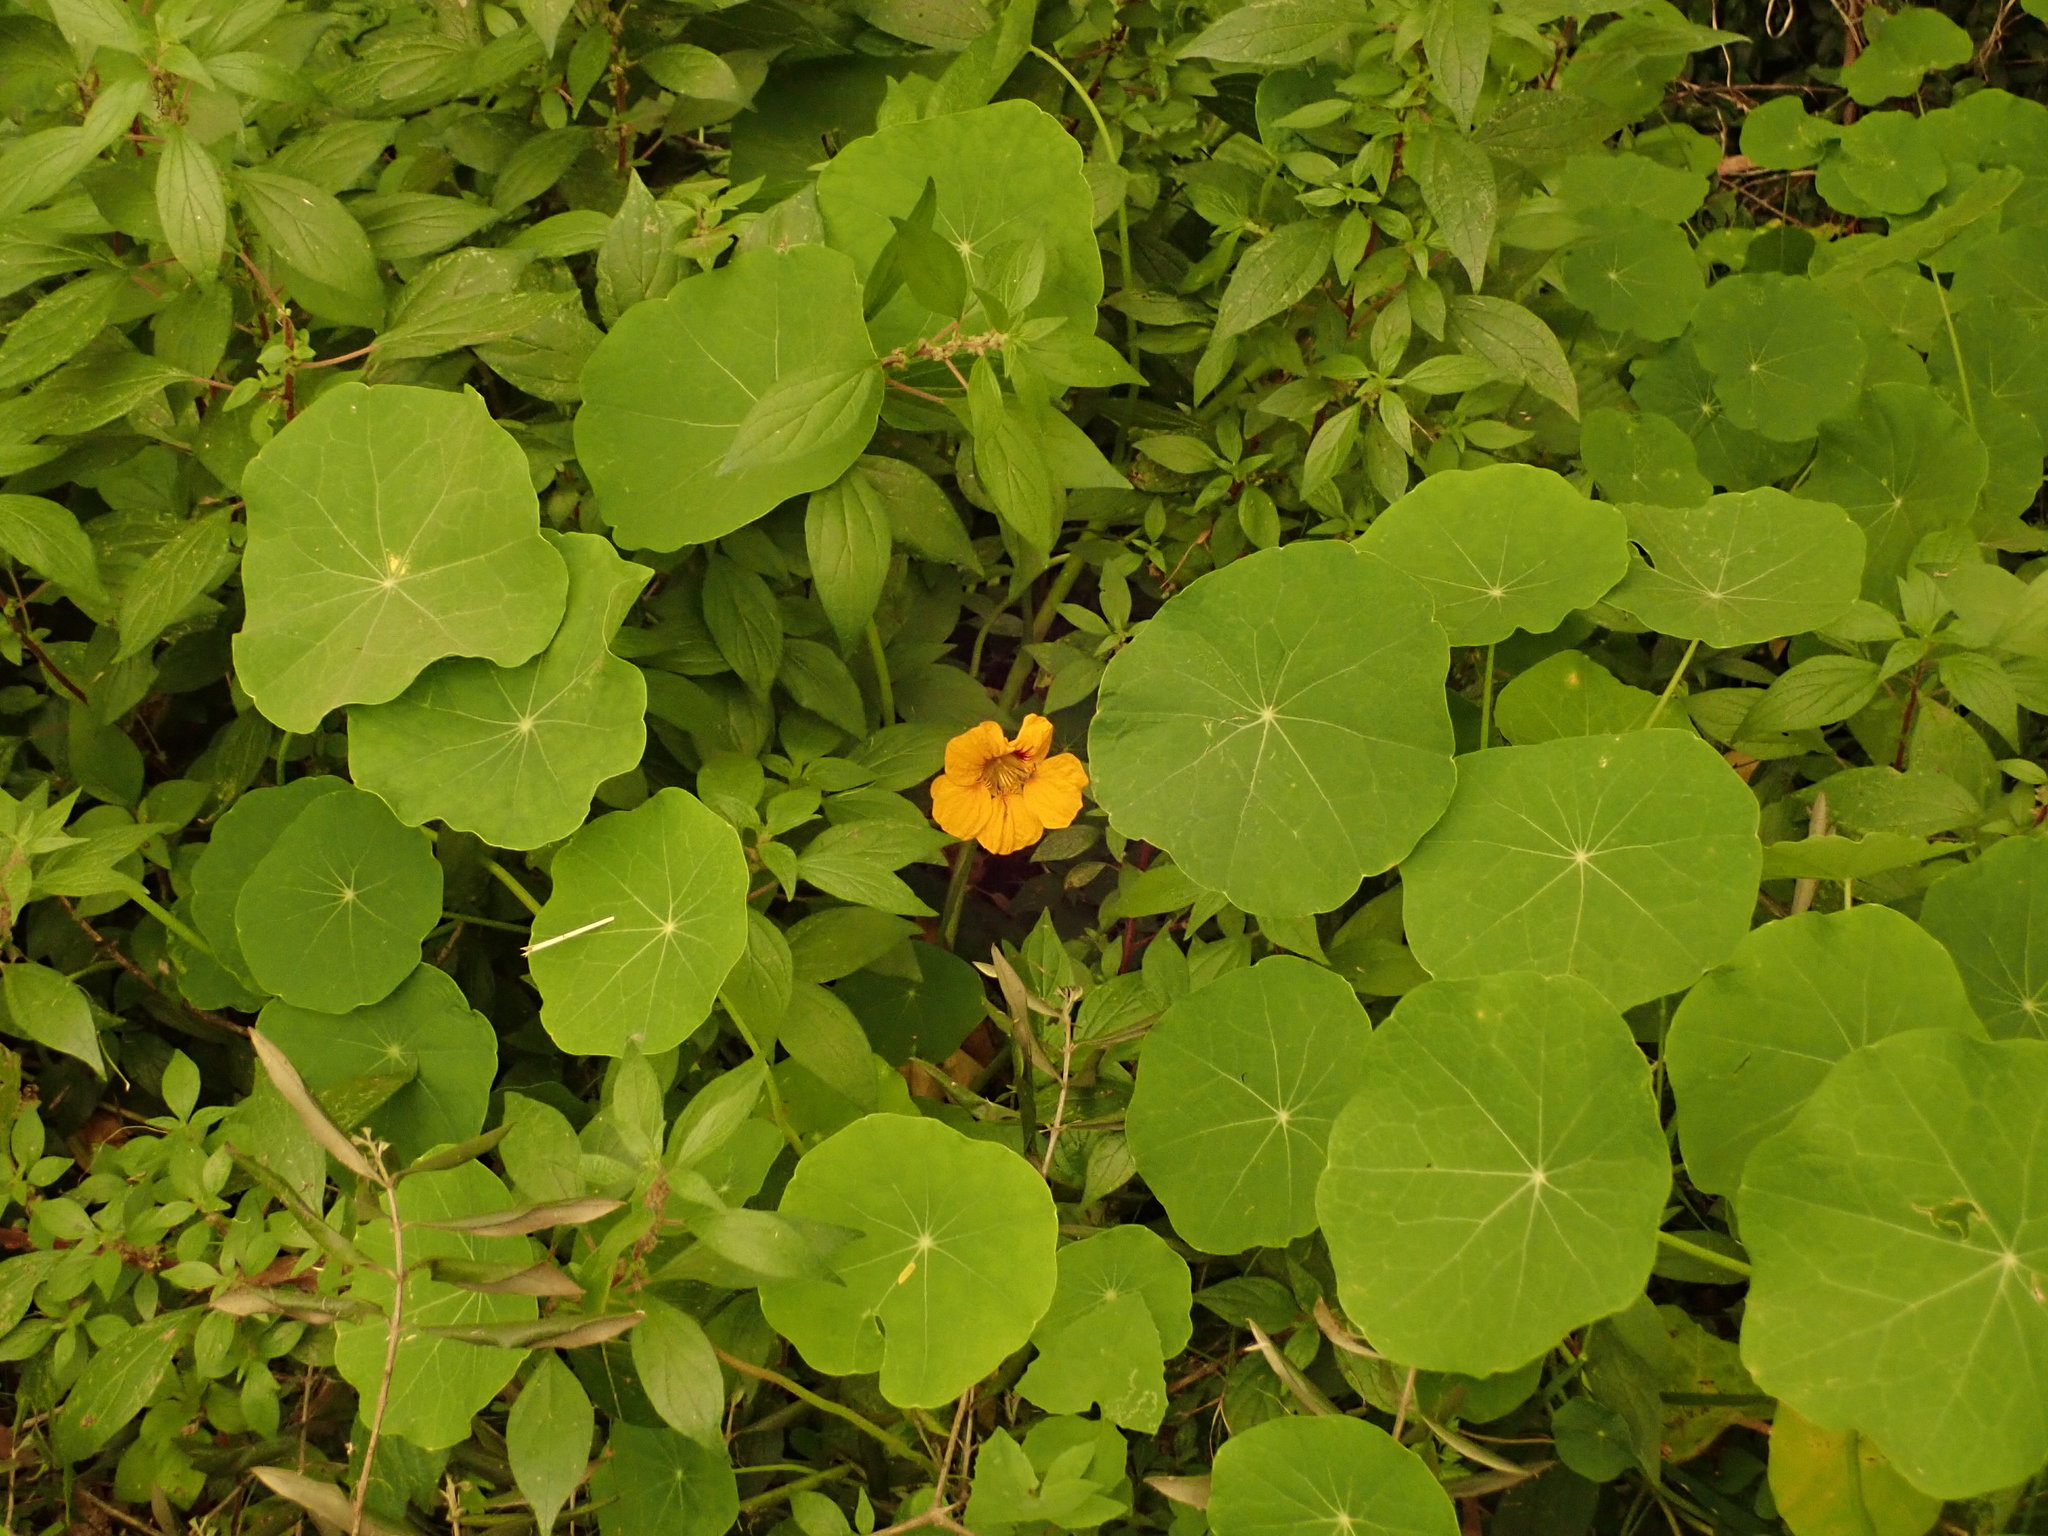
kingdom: Plantae
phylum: Tracheophyta
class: Magnoliopsida
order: Brassicales
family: Tropaeolaceae
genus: Tropaeolum
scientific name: Tropaeolum majus
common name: Nasturtium
